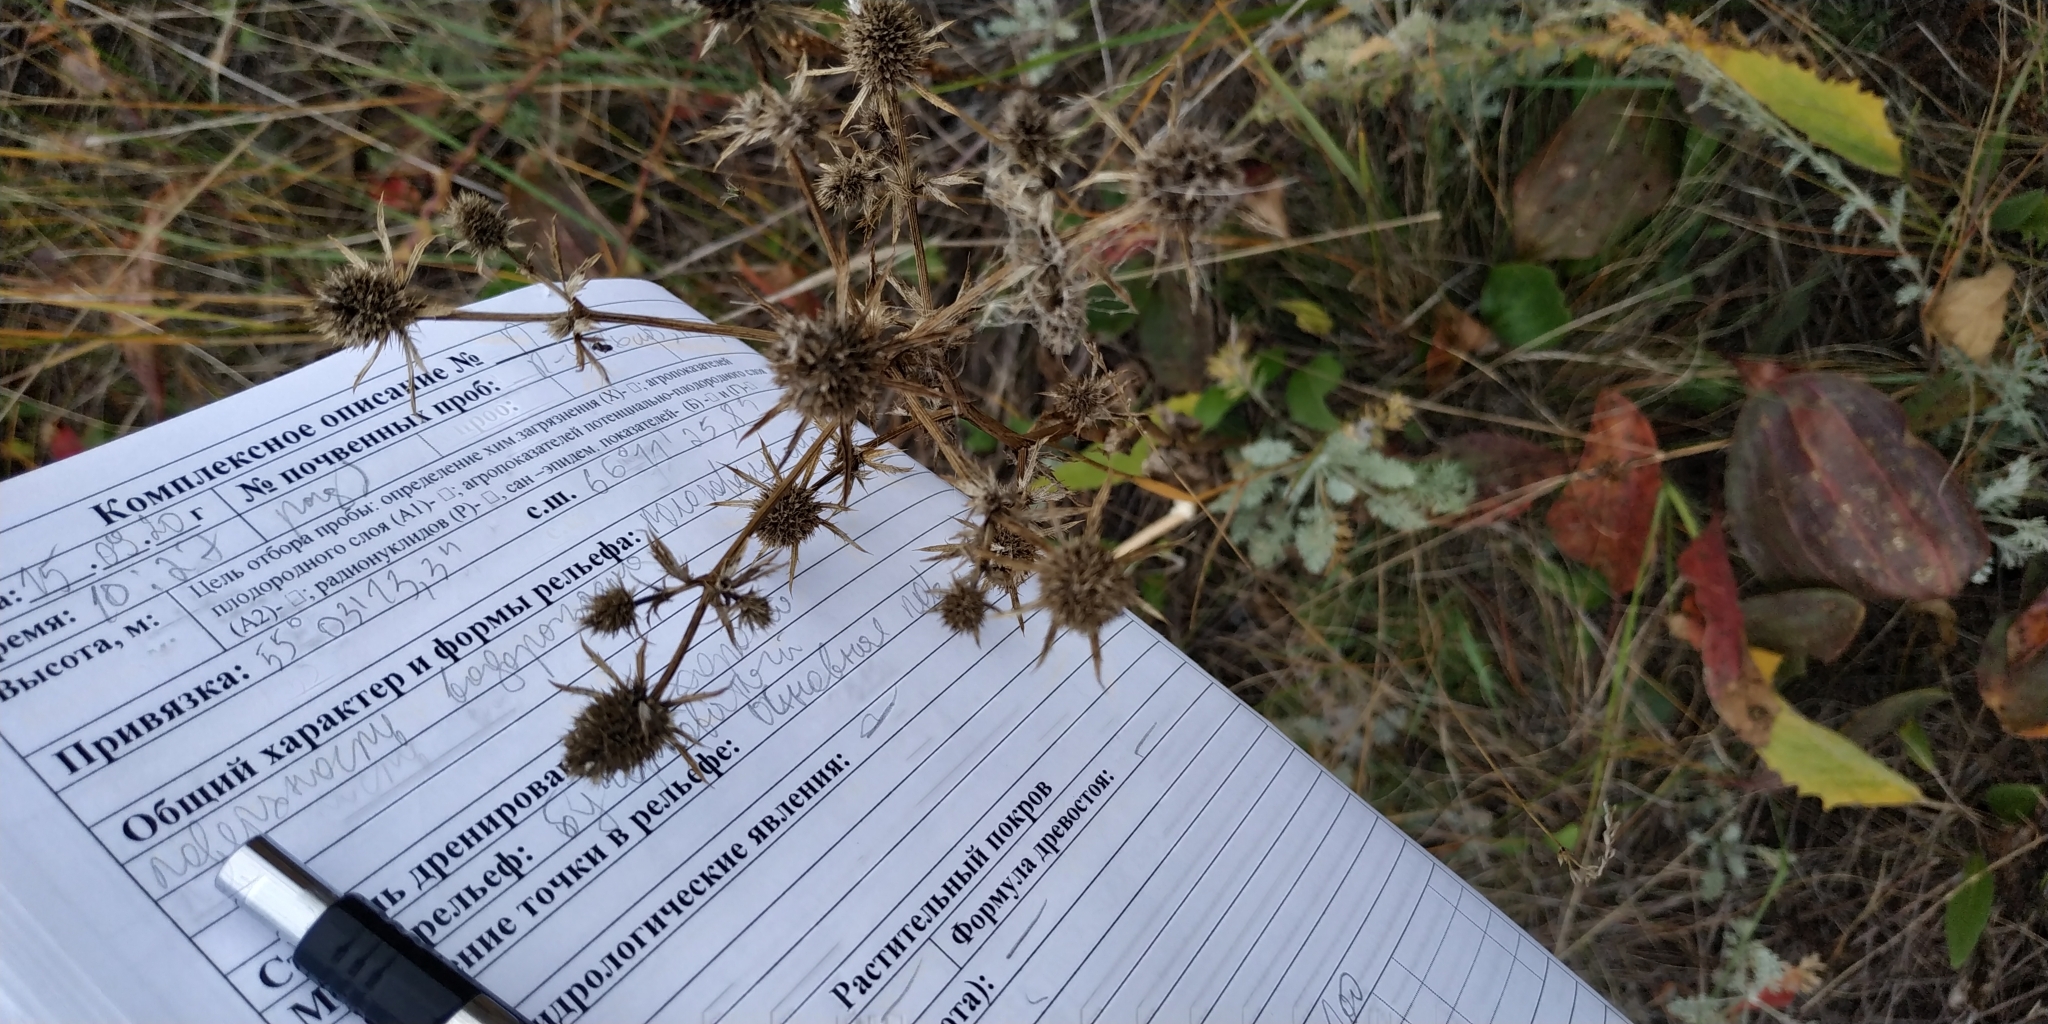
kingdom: Plantae
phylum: Tracheophyta
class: Magnoliopsida
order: Apiales
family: Apiaceae
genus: Eryngium
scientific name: Eryngium planum
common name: Blue eryngo
